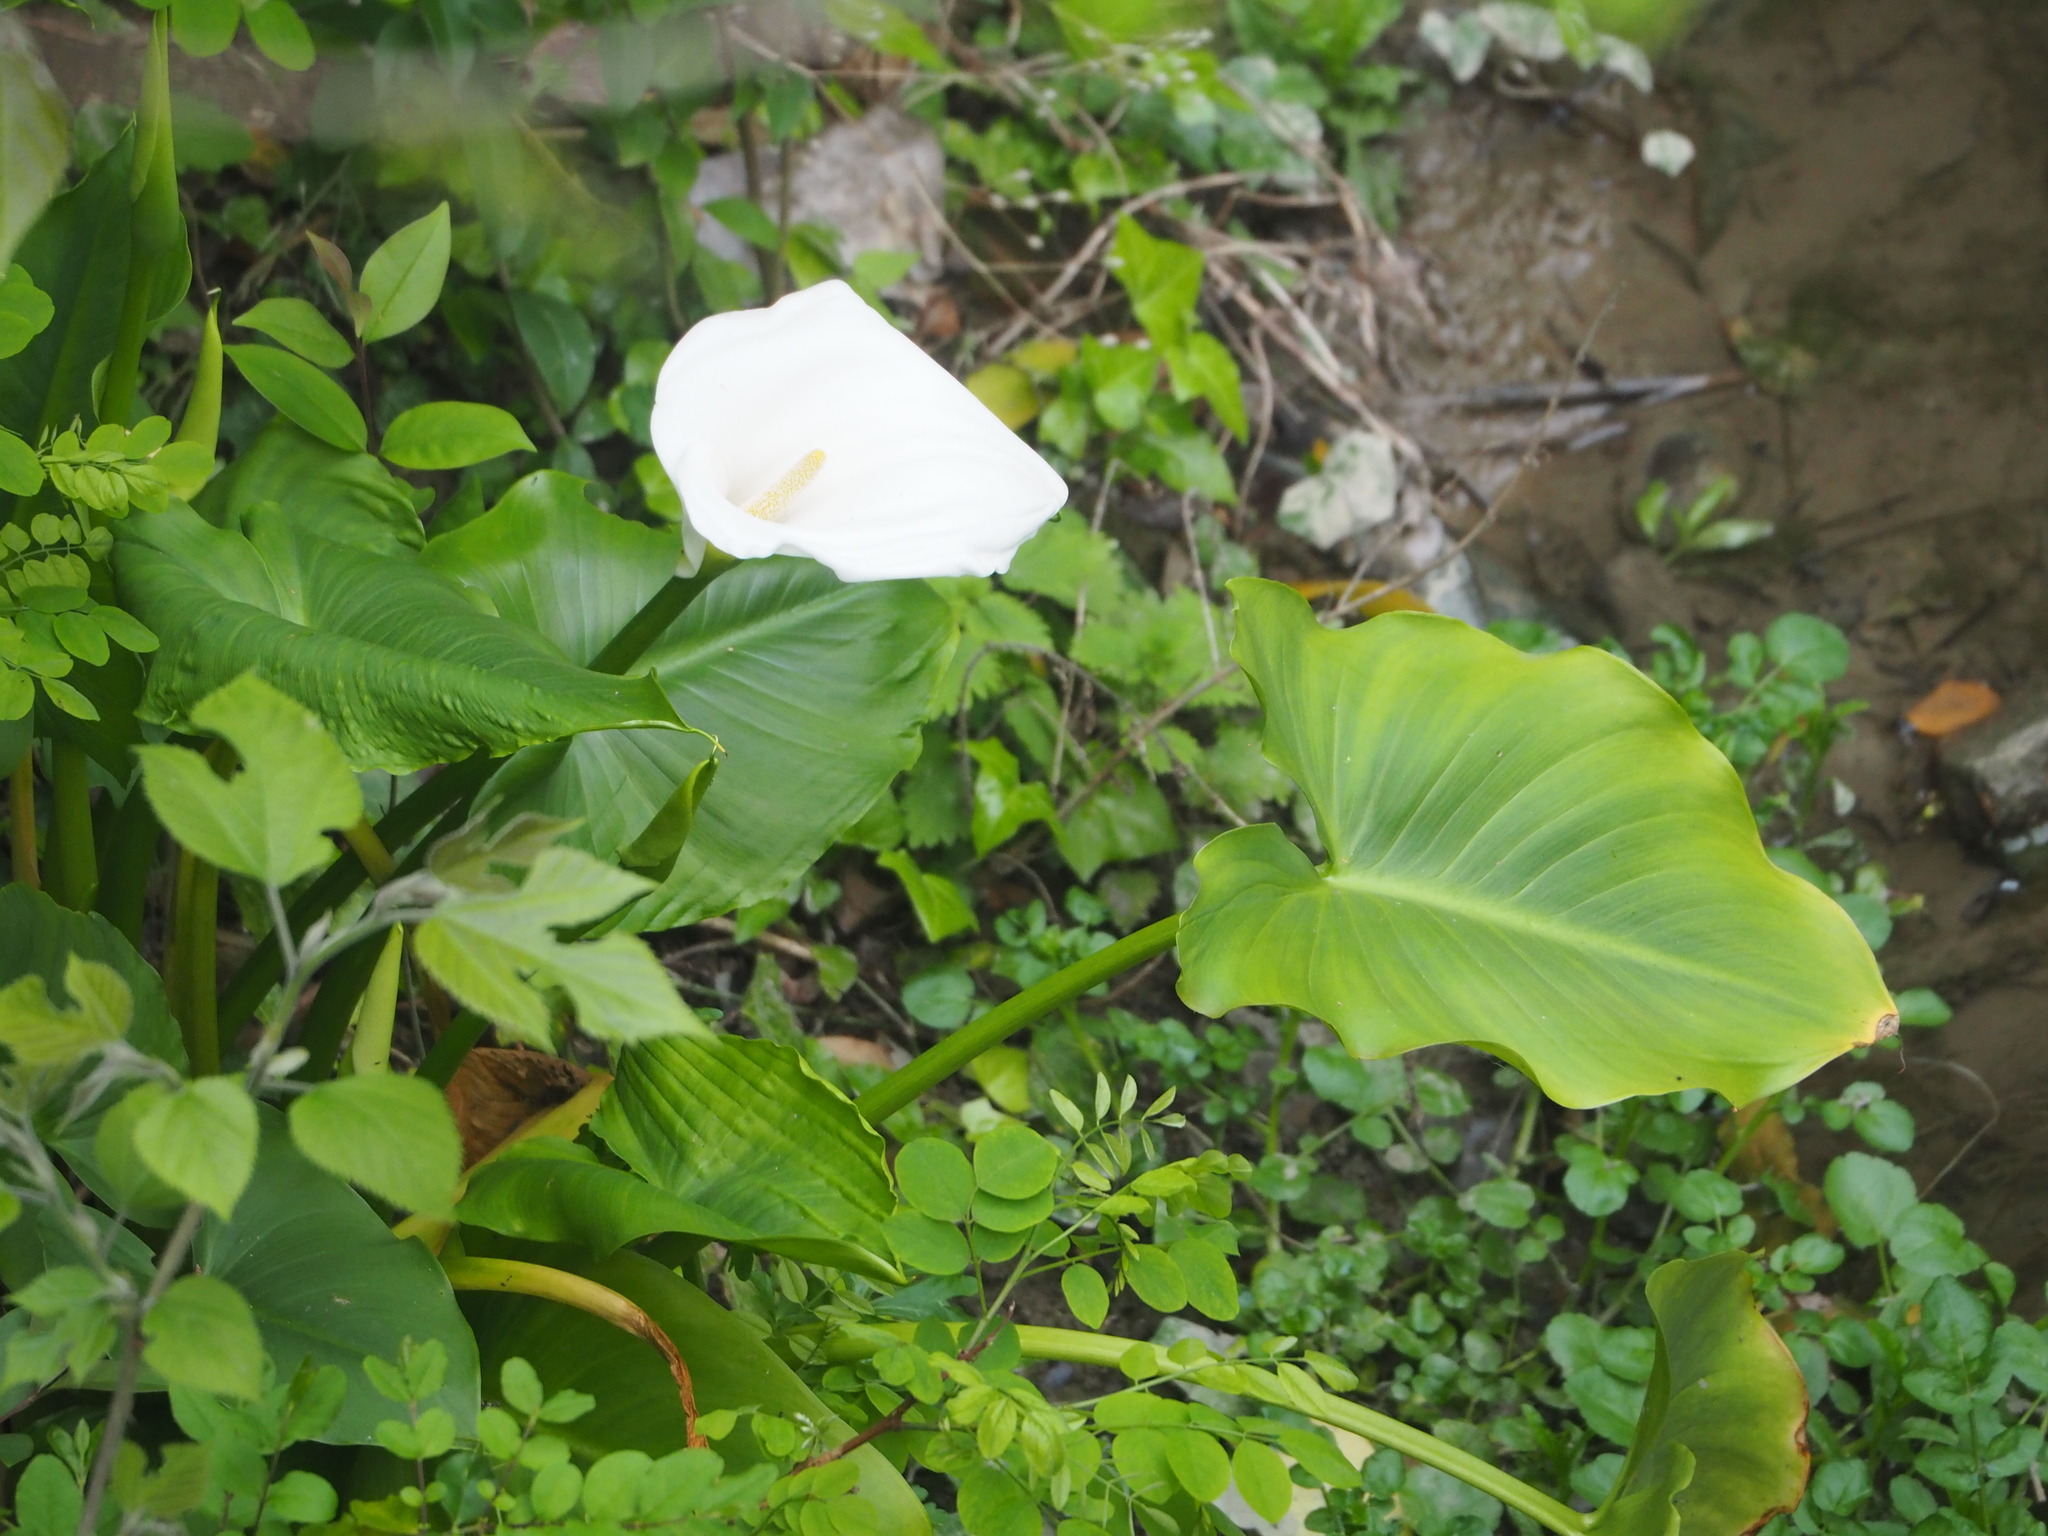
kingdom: Plantae
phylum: Tracheophyta
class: Liliopsida
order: Alismatales
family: Araceae
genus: Zantedeschia
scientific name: Zantedeschia aethiopica
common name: Altar-lily
